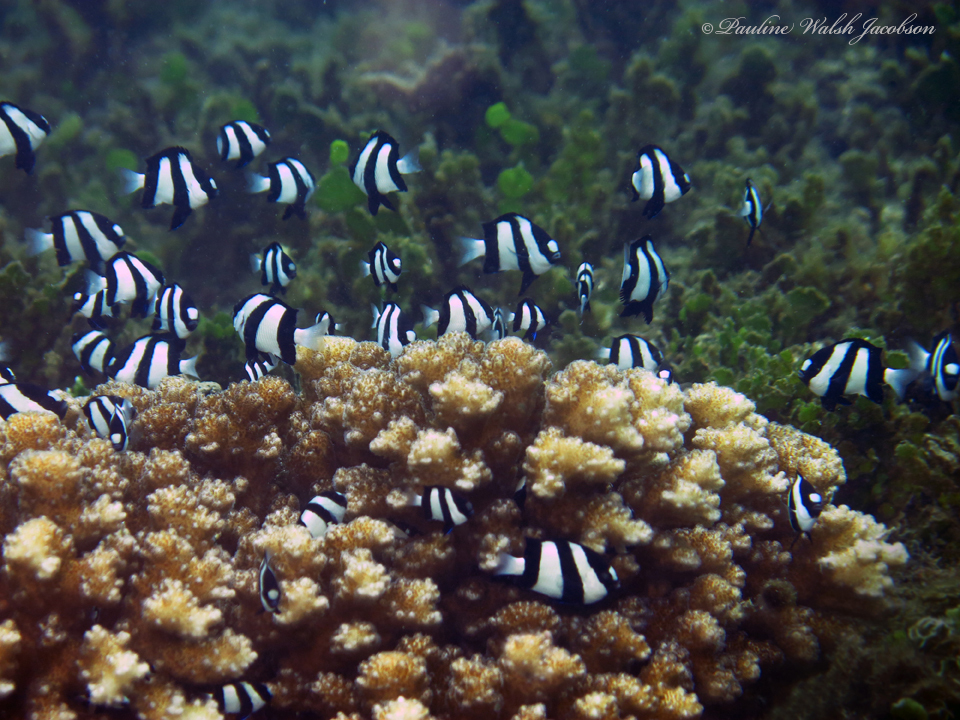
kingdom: Animalia
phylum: Chordata
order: Perciformes
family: Pomacentridae
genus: Dascyllus
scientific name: Dascyllus aruanus
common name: Humbug dascyllus
